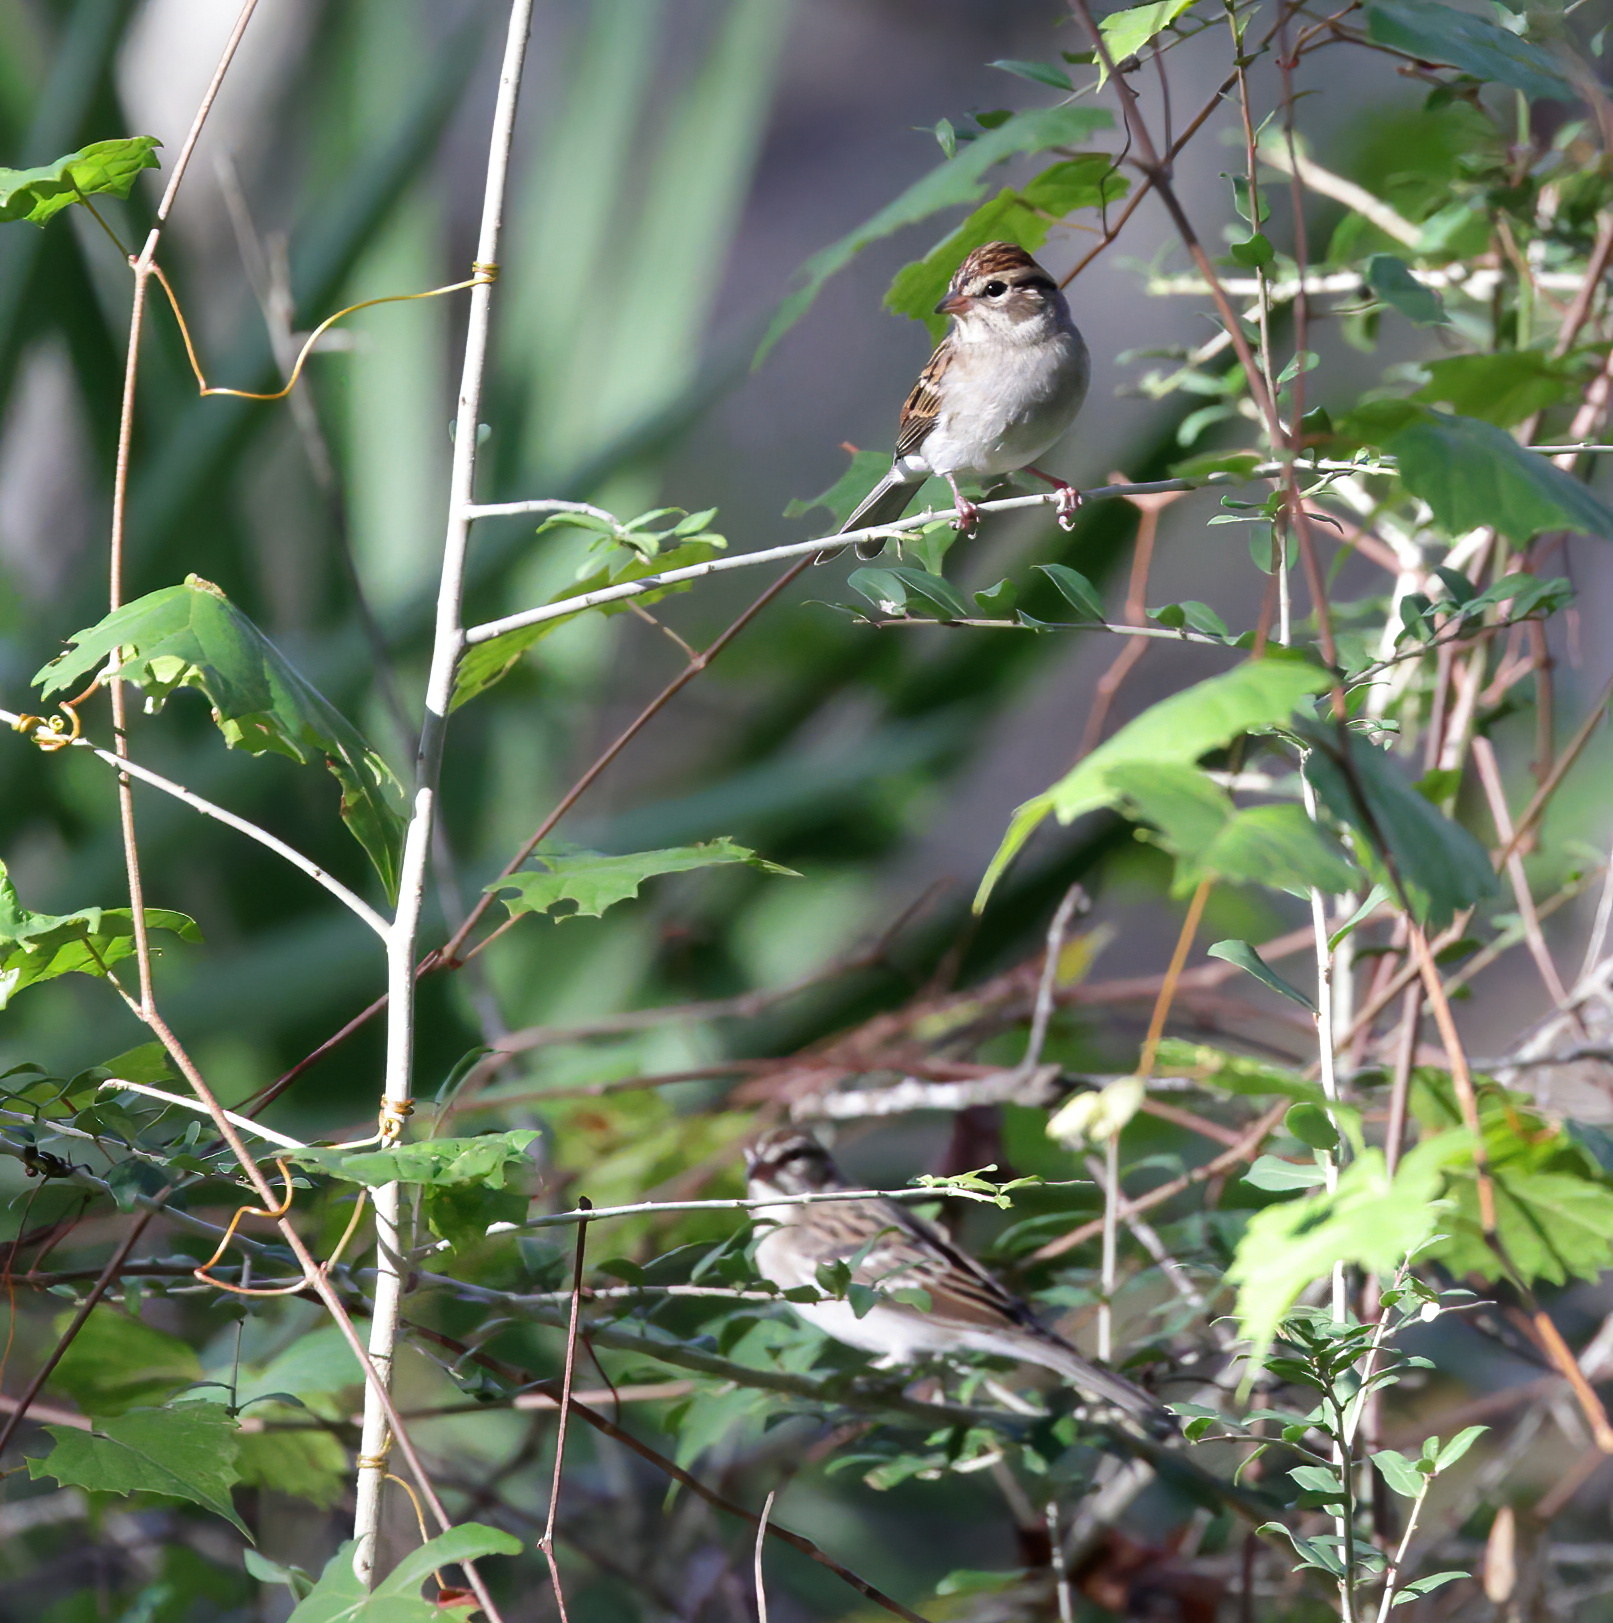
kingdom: Animalia
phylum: Chordata
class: Aves
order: Passeriformes
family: Passerellidae
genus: Spizella
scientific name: Spizella passerina
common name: Chipping sparrow
